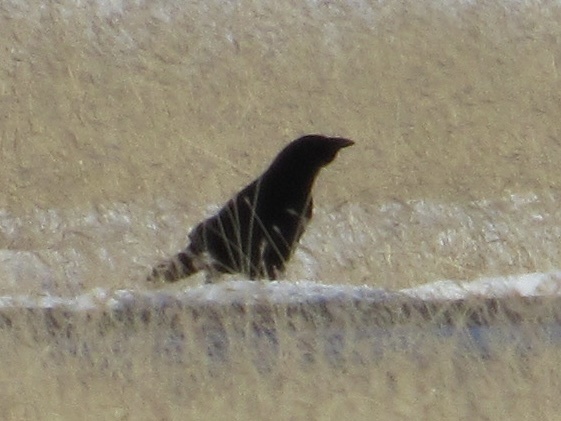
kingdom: Animalia
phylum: Chordata
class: Aves
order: Passeriformes
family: Corvidae
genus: Corvus
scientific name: Corvus brachyrhynchos
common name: American crow
